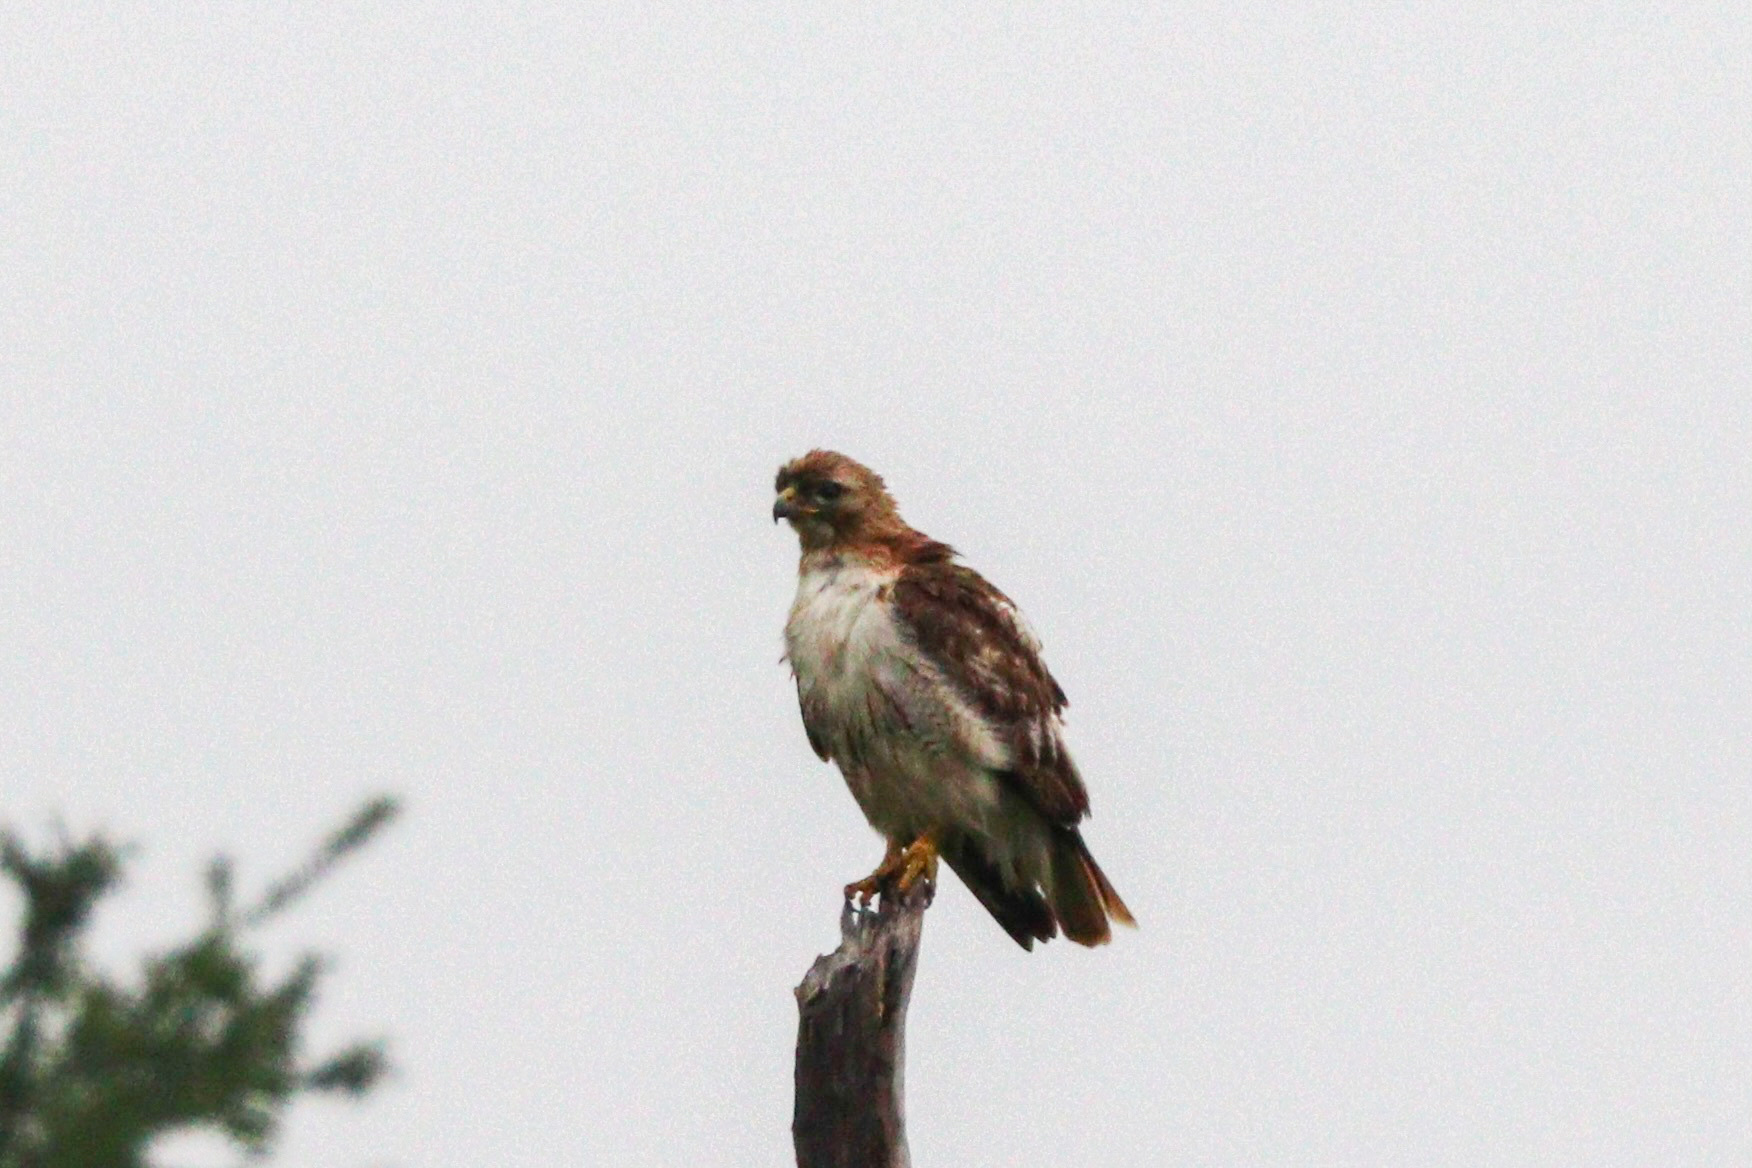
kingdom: Animalia
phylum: Chordata
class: Aves
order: Accipitriformes
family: Accipitridae
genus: Buteo
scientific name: Buteo jamaicensis
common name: Red-tailed hawk
